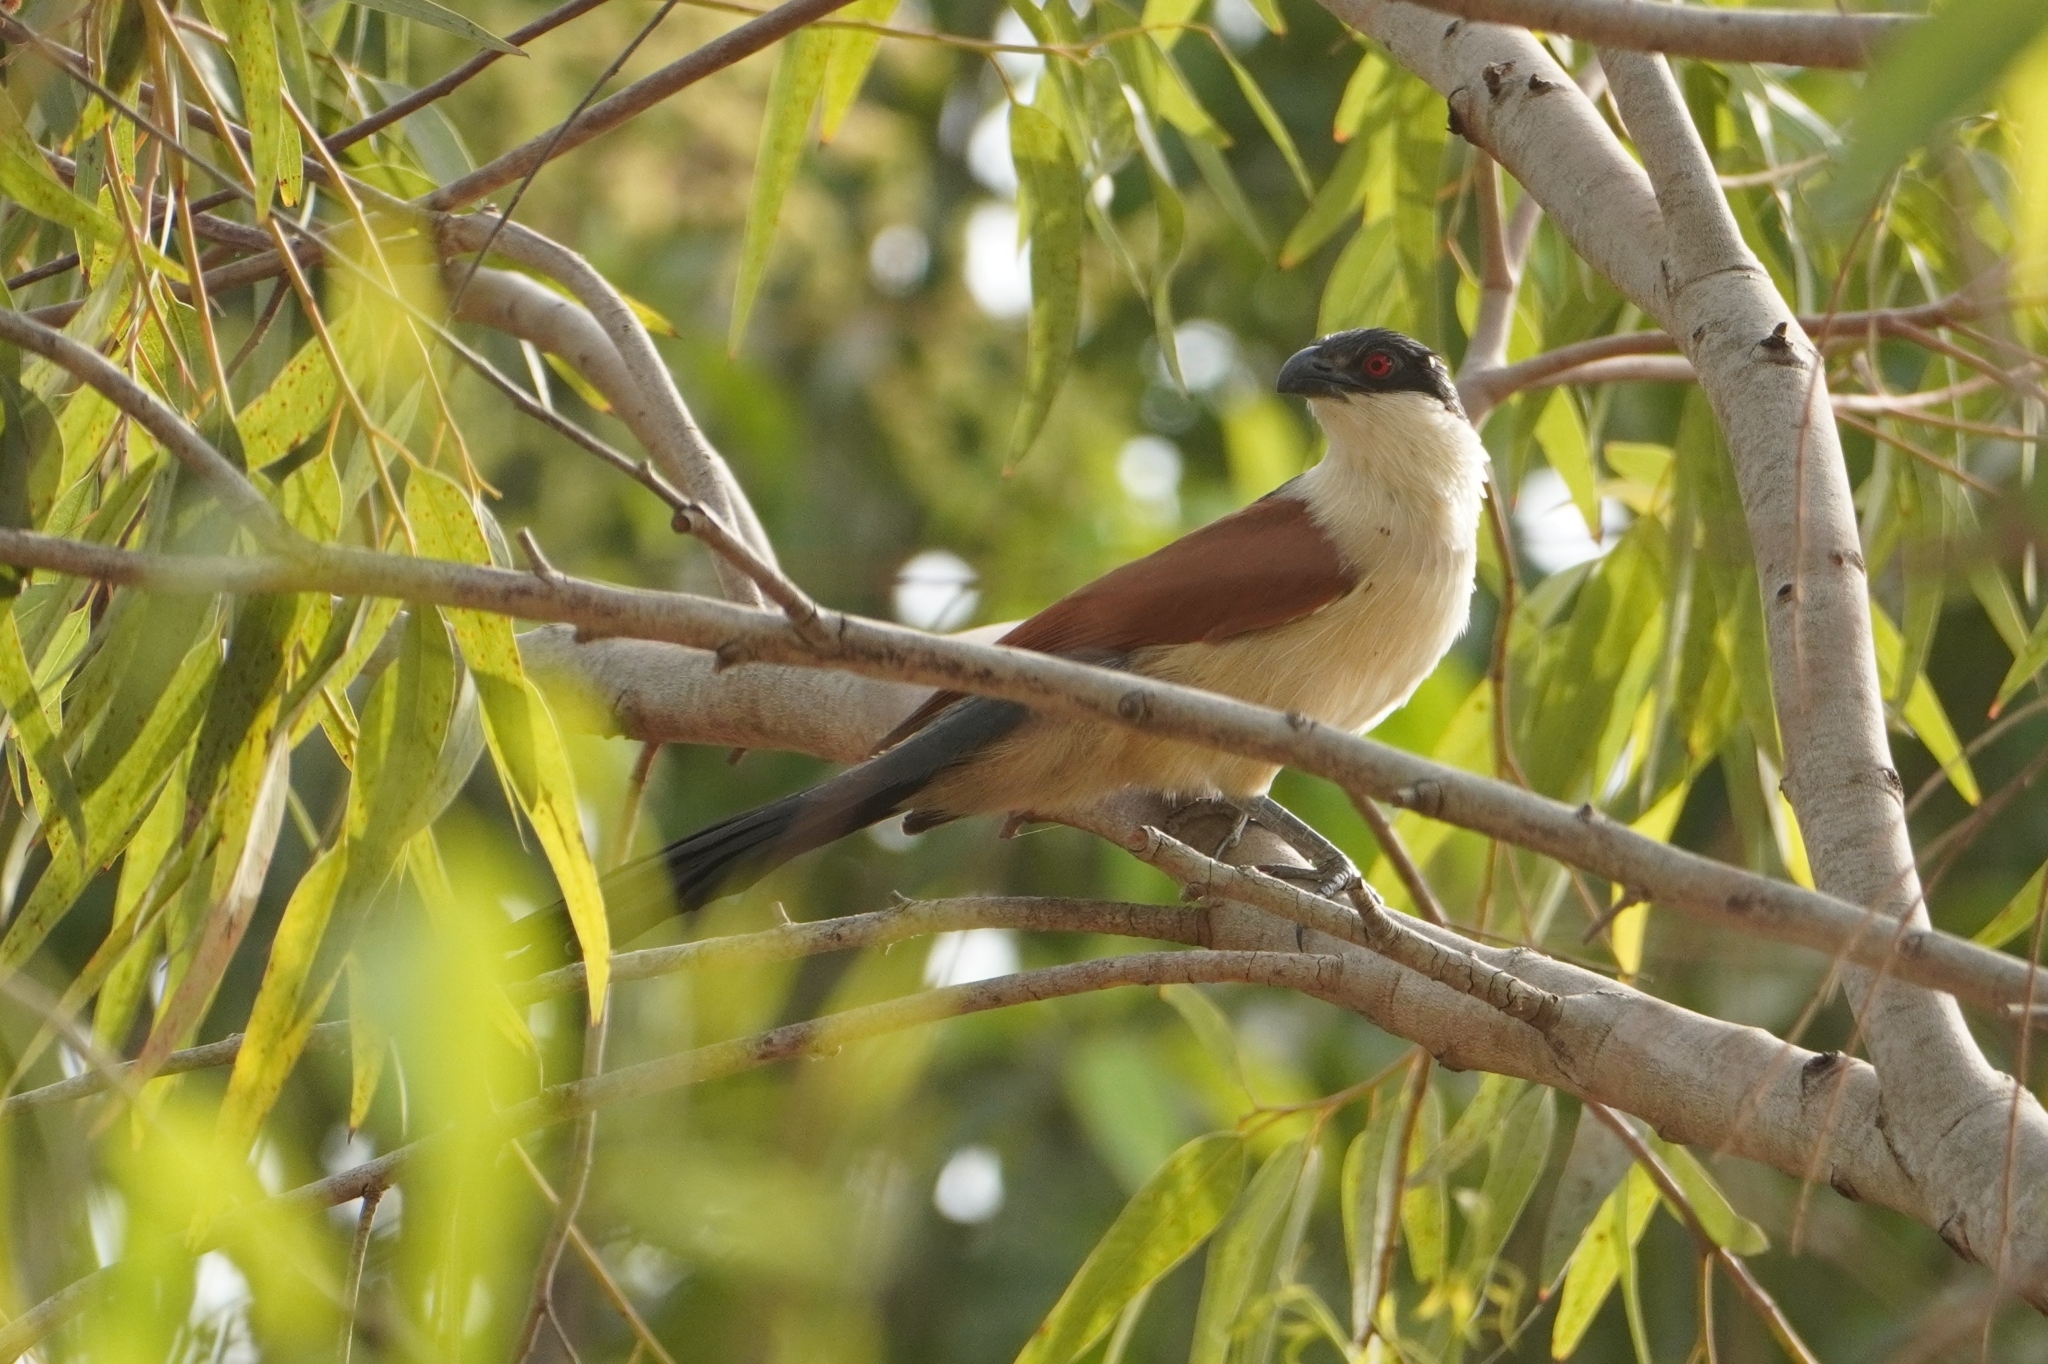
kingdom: Animalia
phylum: Chordata
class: Aves
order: Cuculiformes
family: Cuculidae
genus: Centropus
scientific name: Centropus senegalensis
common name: Senegal coucal
